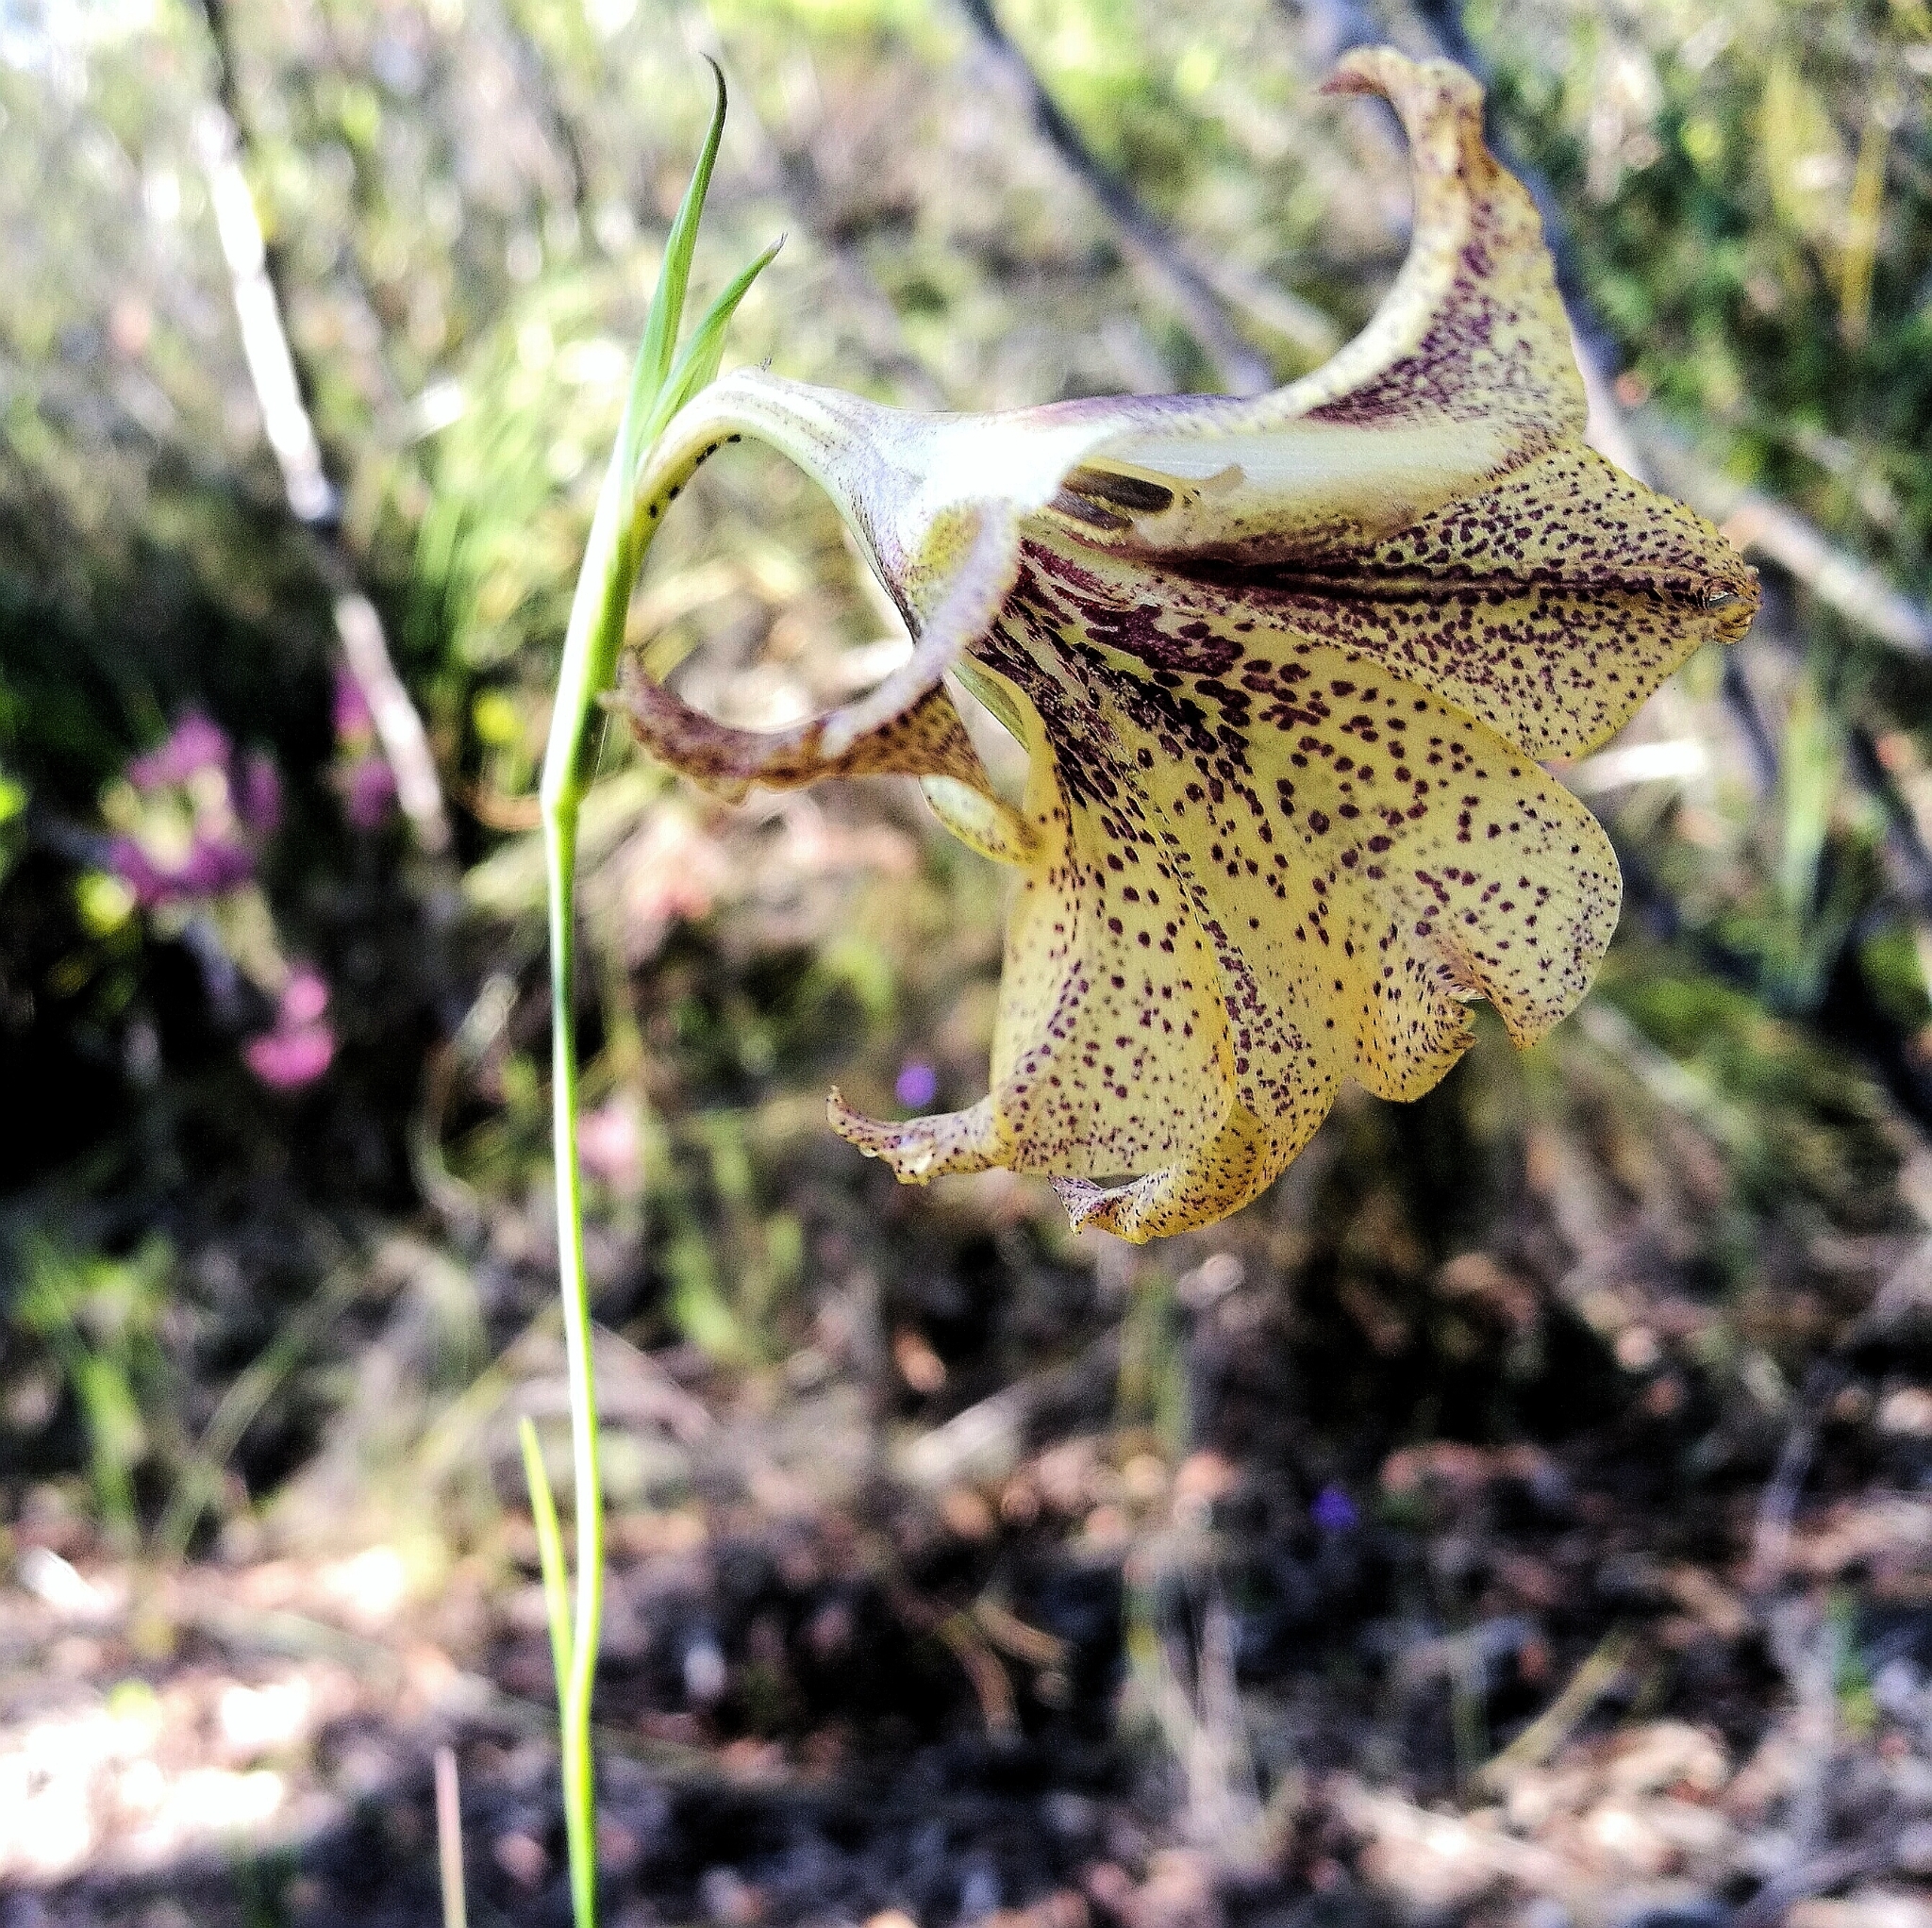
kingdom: Plantae
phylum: Tracheophyta
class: Liliopsida
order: Asparagales
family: Iridaceae
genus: Gladiolus
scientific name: Gladiolus maculatus
